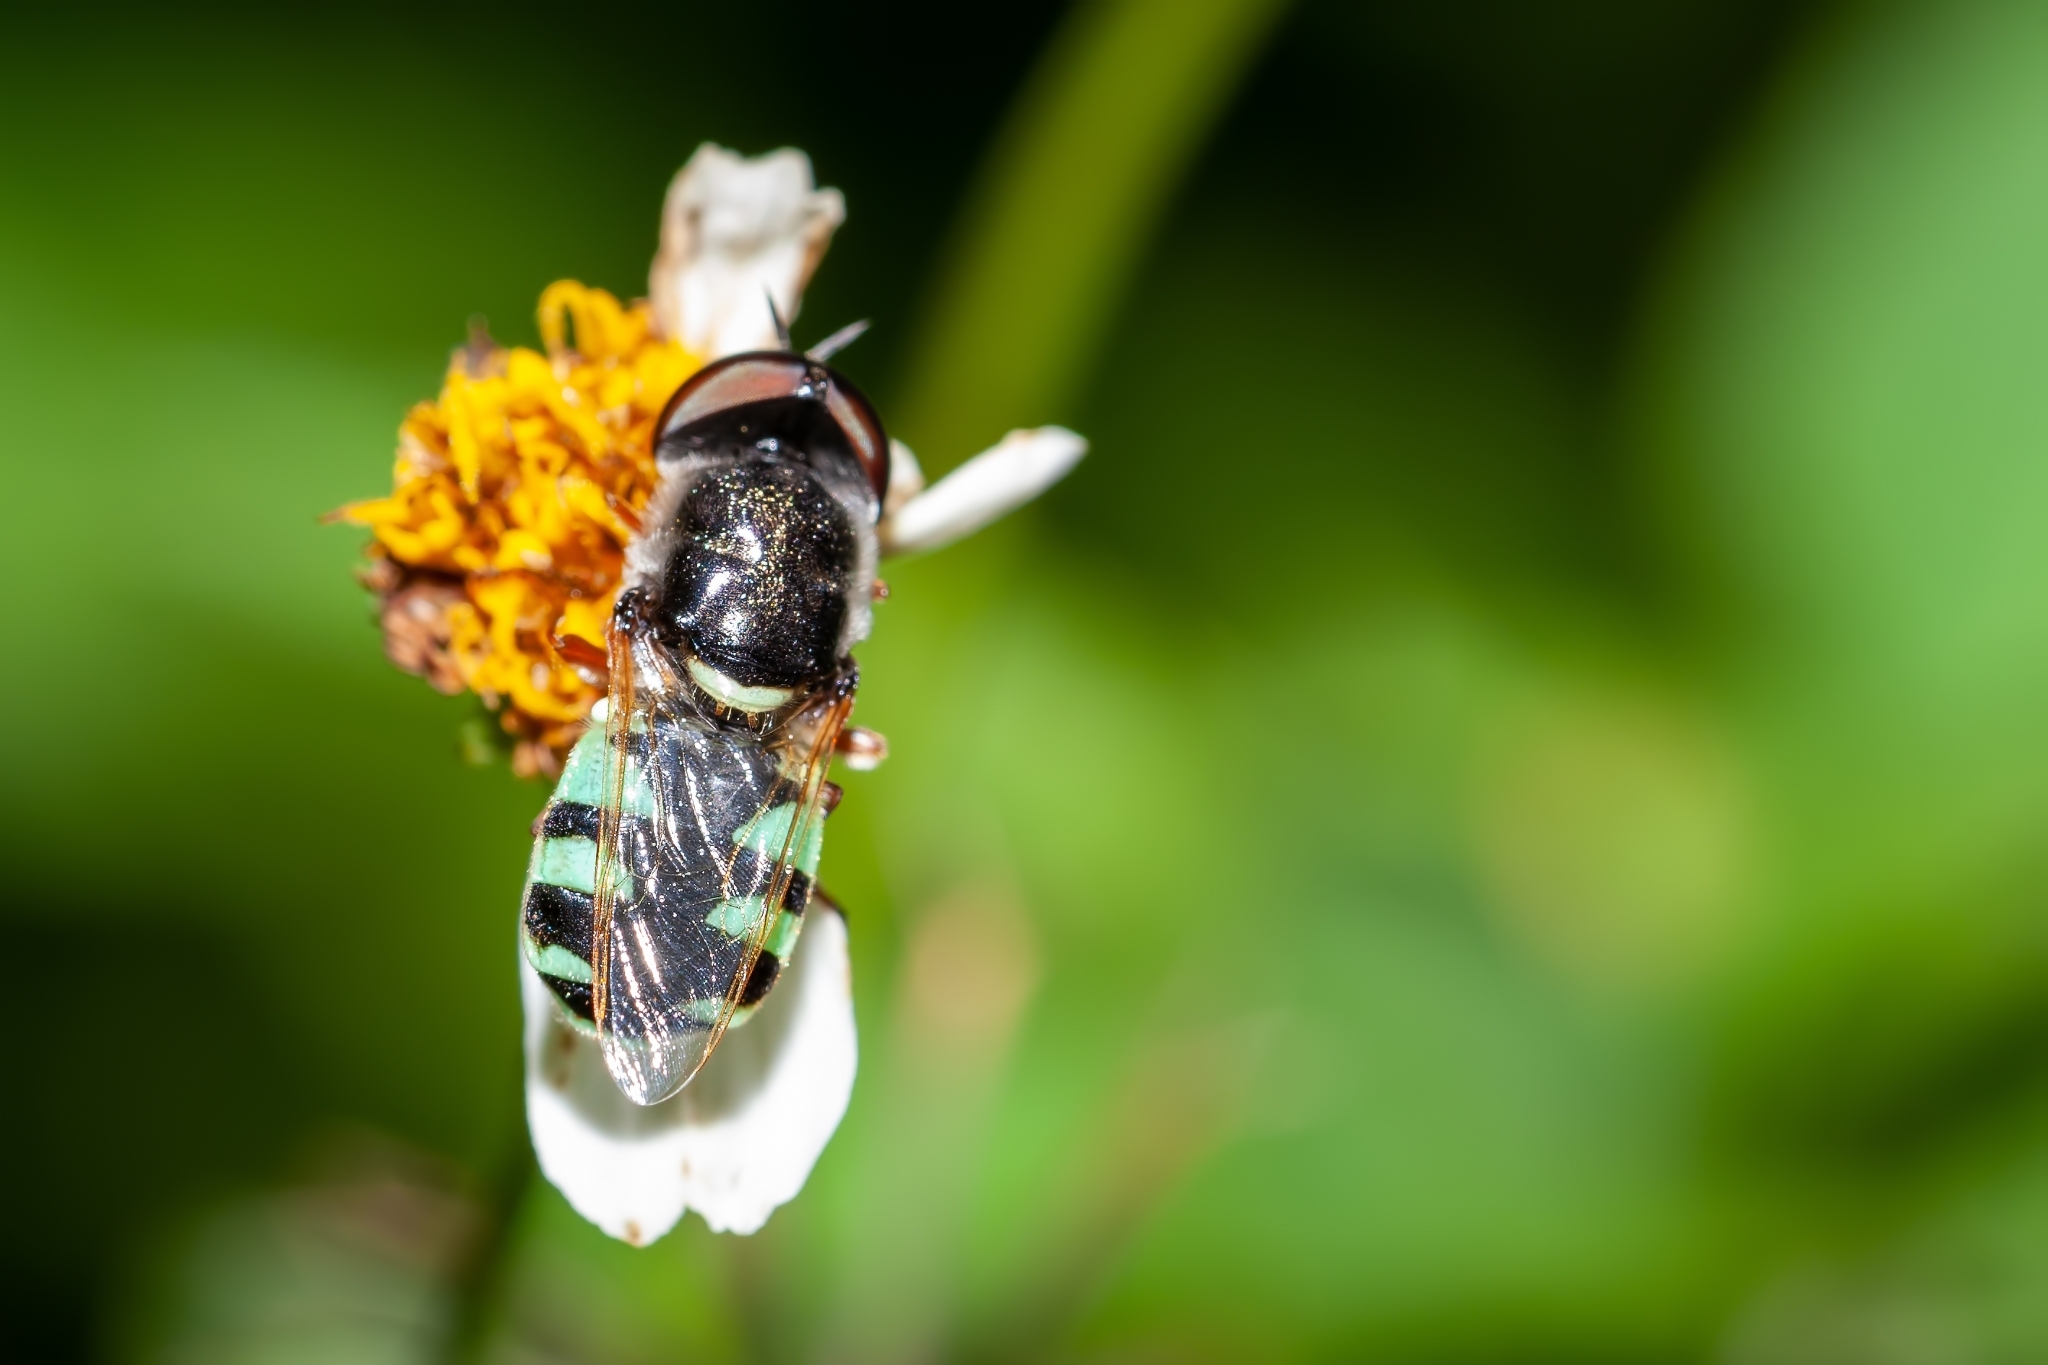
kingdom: Animalia
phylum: Arthropoda
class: Insecta
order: Diptera
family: Stratiomyidae
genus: Odontomyia
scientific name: Odontomyia rufipes
